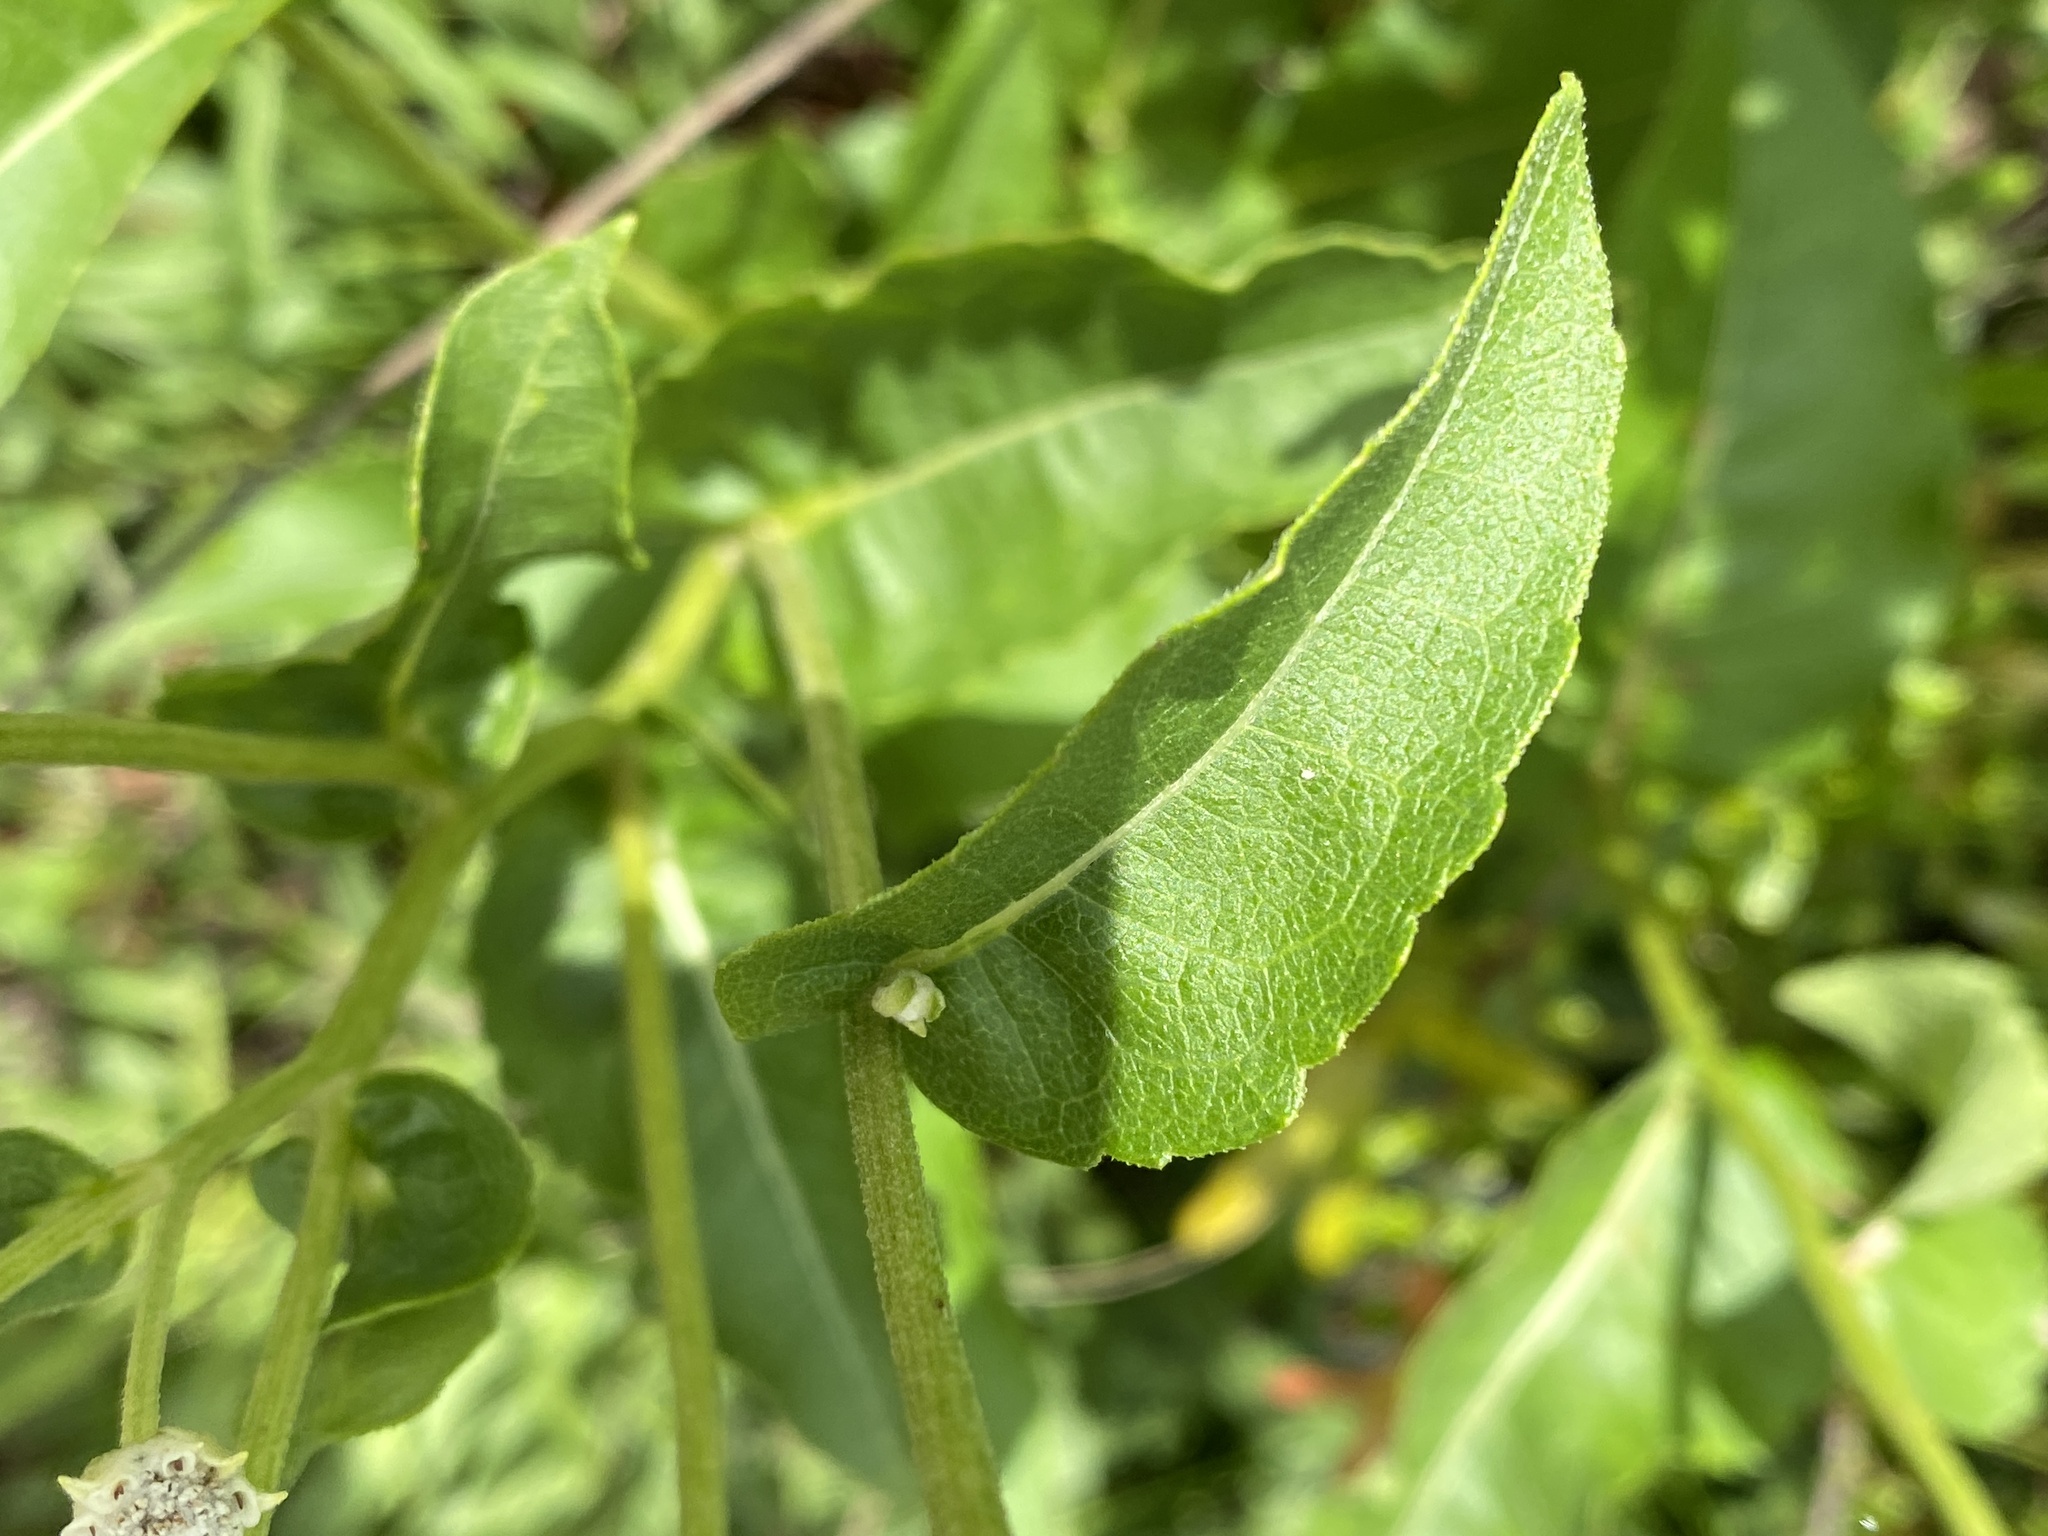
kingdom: Plantae
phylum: Tracheophyta
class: Magnoliopsida
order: Asterales
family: Asteraceae
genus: Parthenium
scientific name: Parthenium integrifolium
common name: American feverfew
